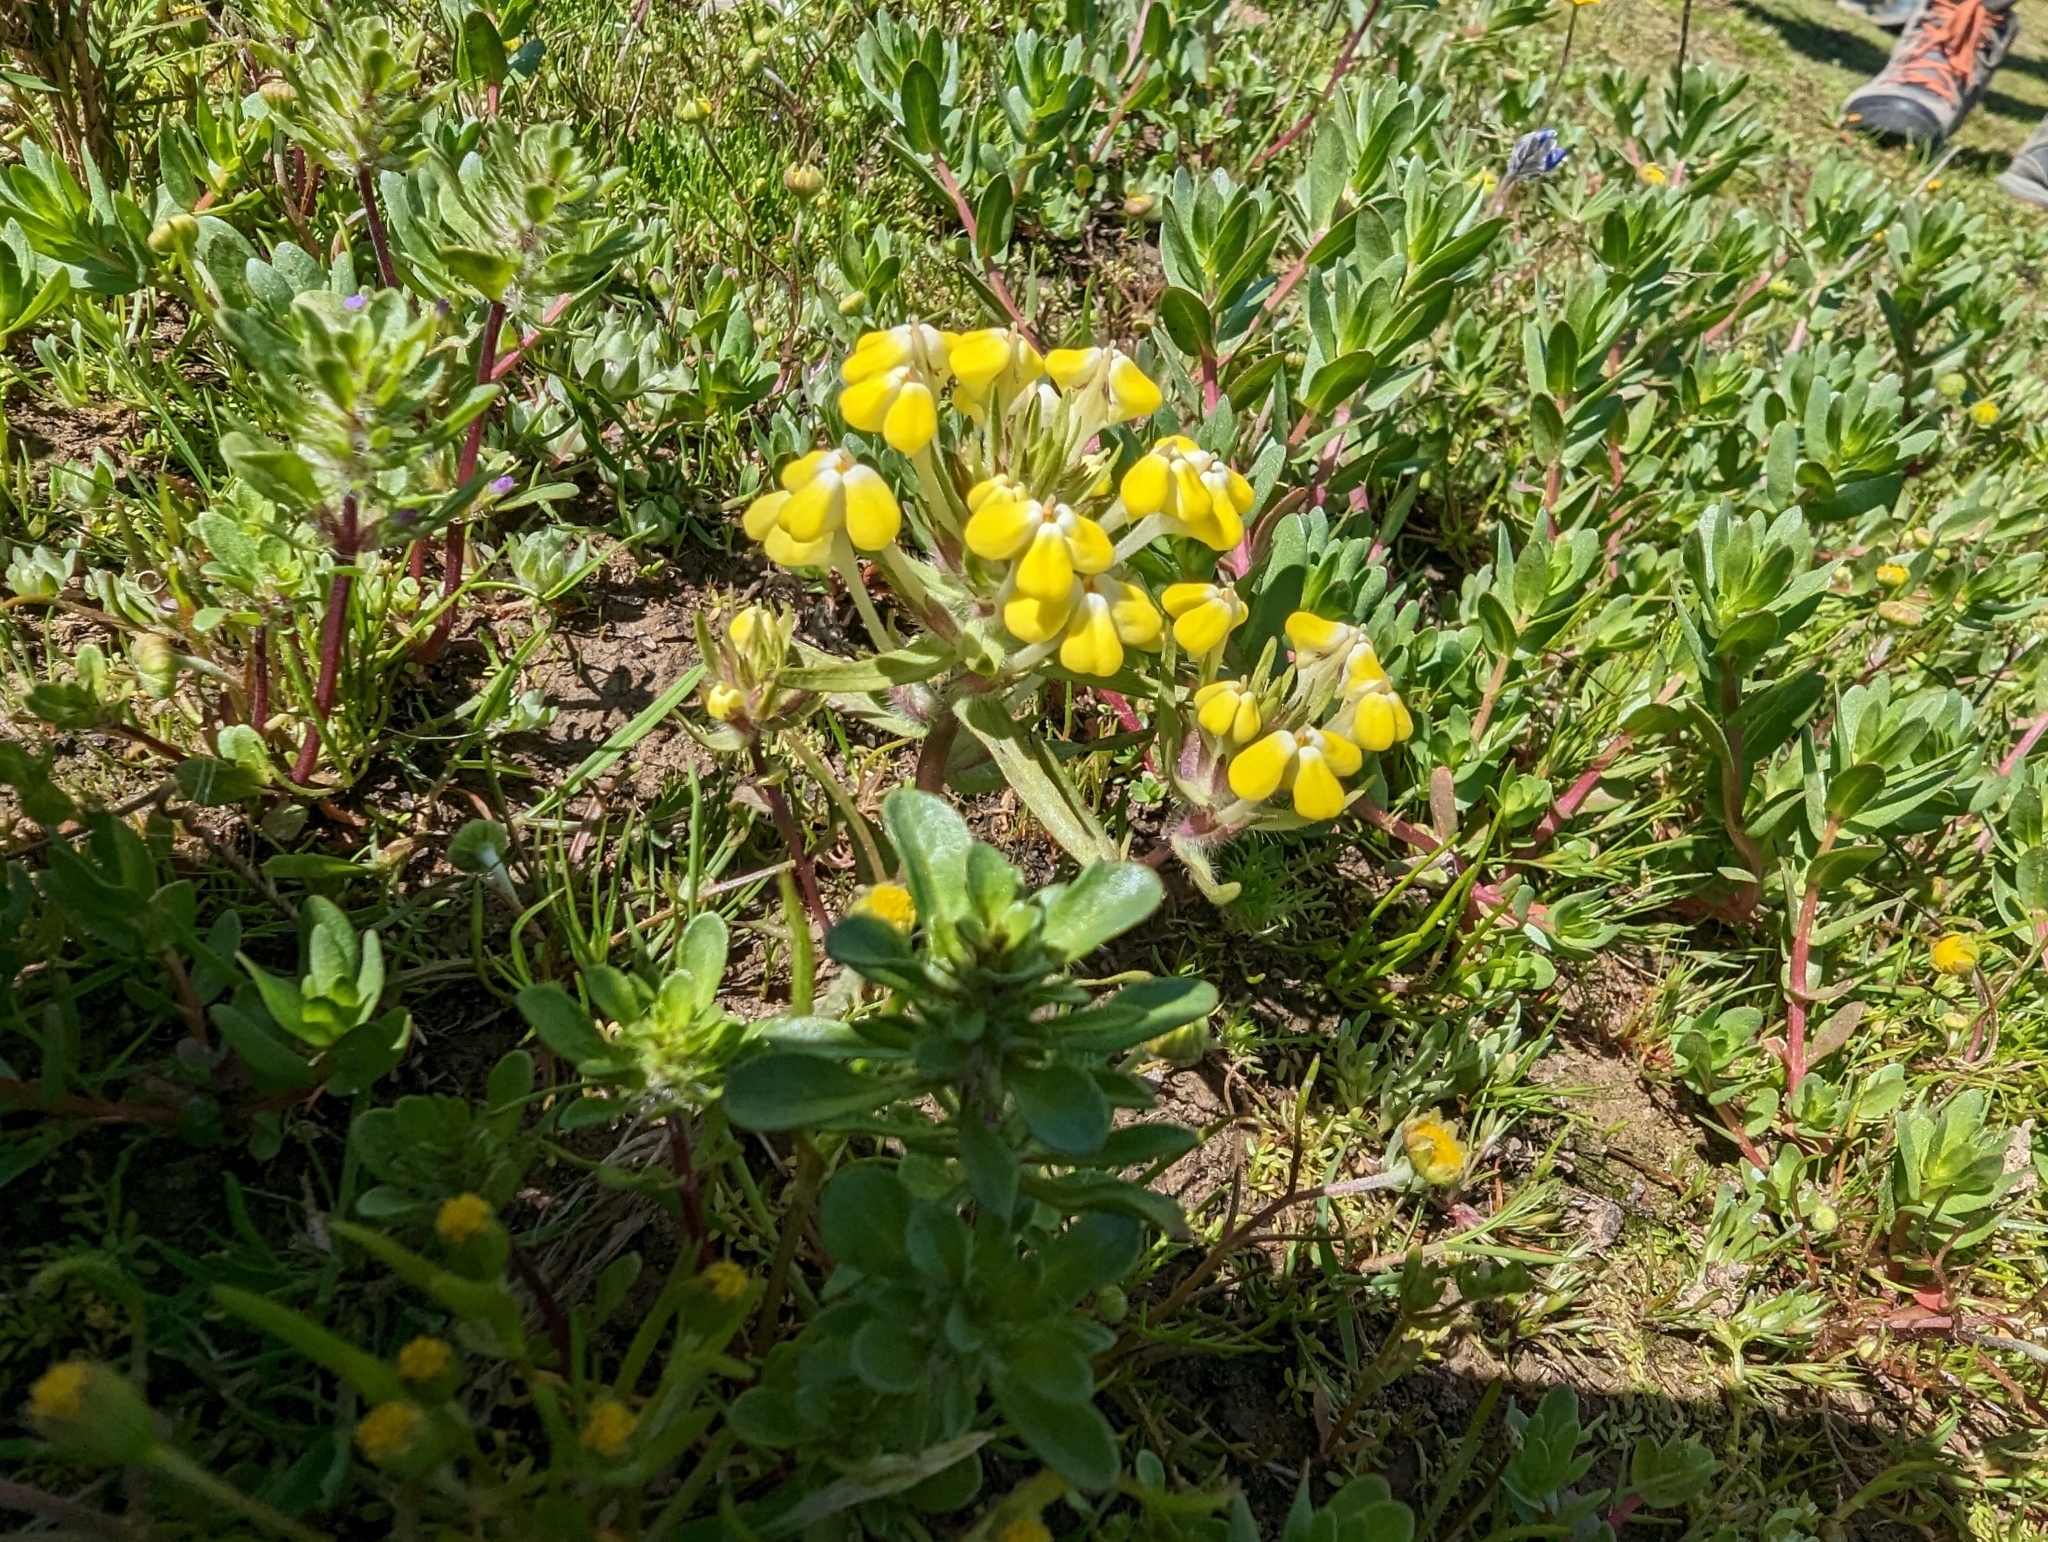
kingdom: Plantae
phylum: Tracheophyta
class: Magnoliopsida
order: Lamiales
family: Orobanchaceae
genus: Castilleja
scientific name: Castilleja campestris
